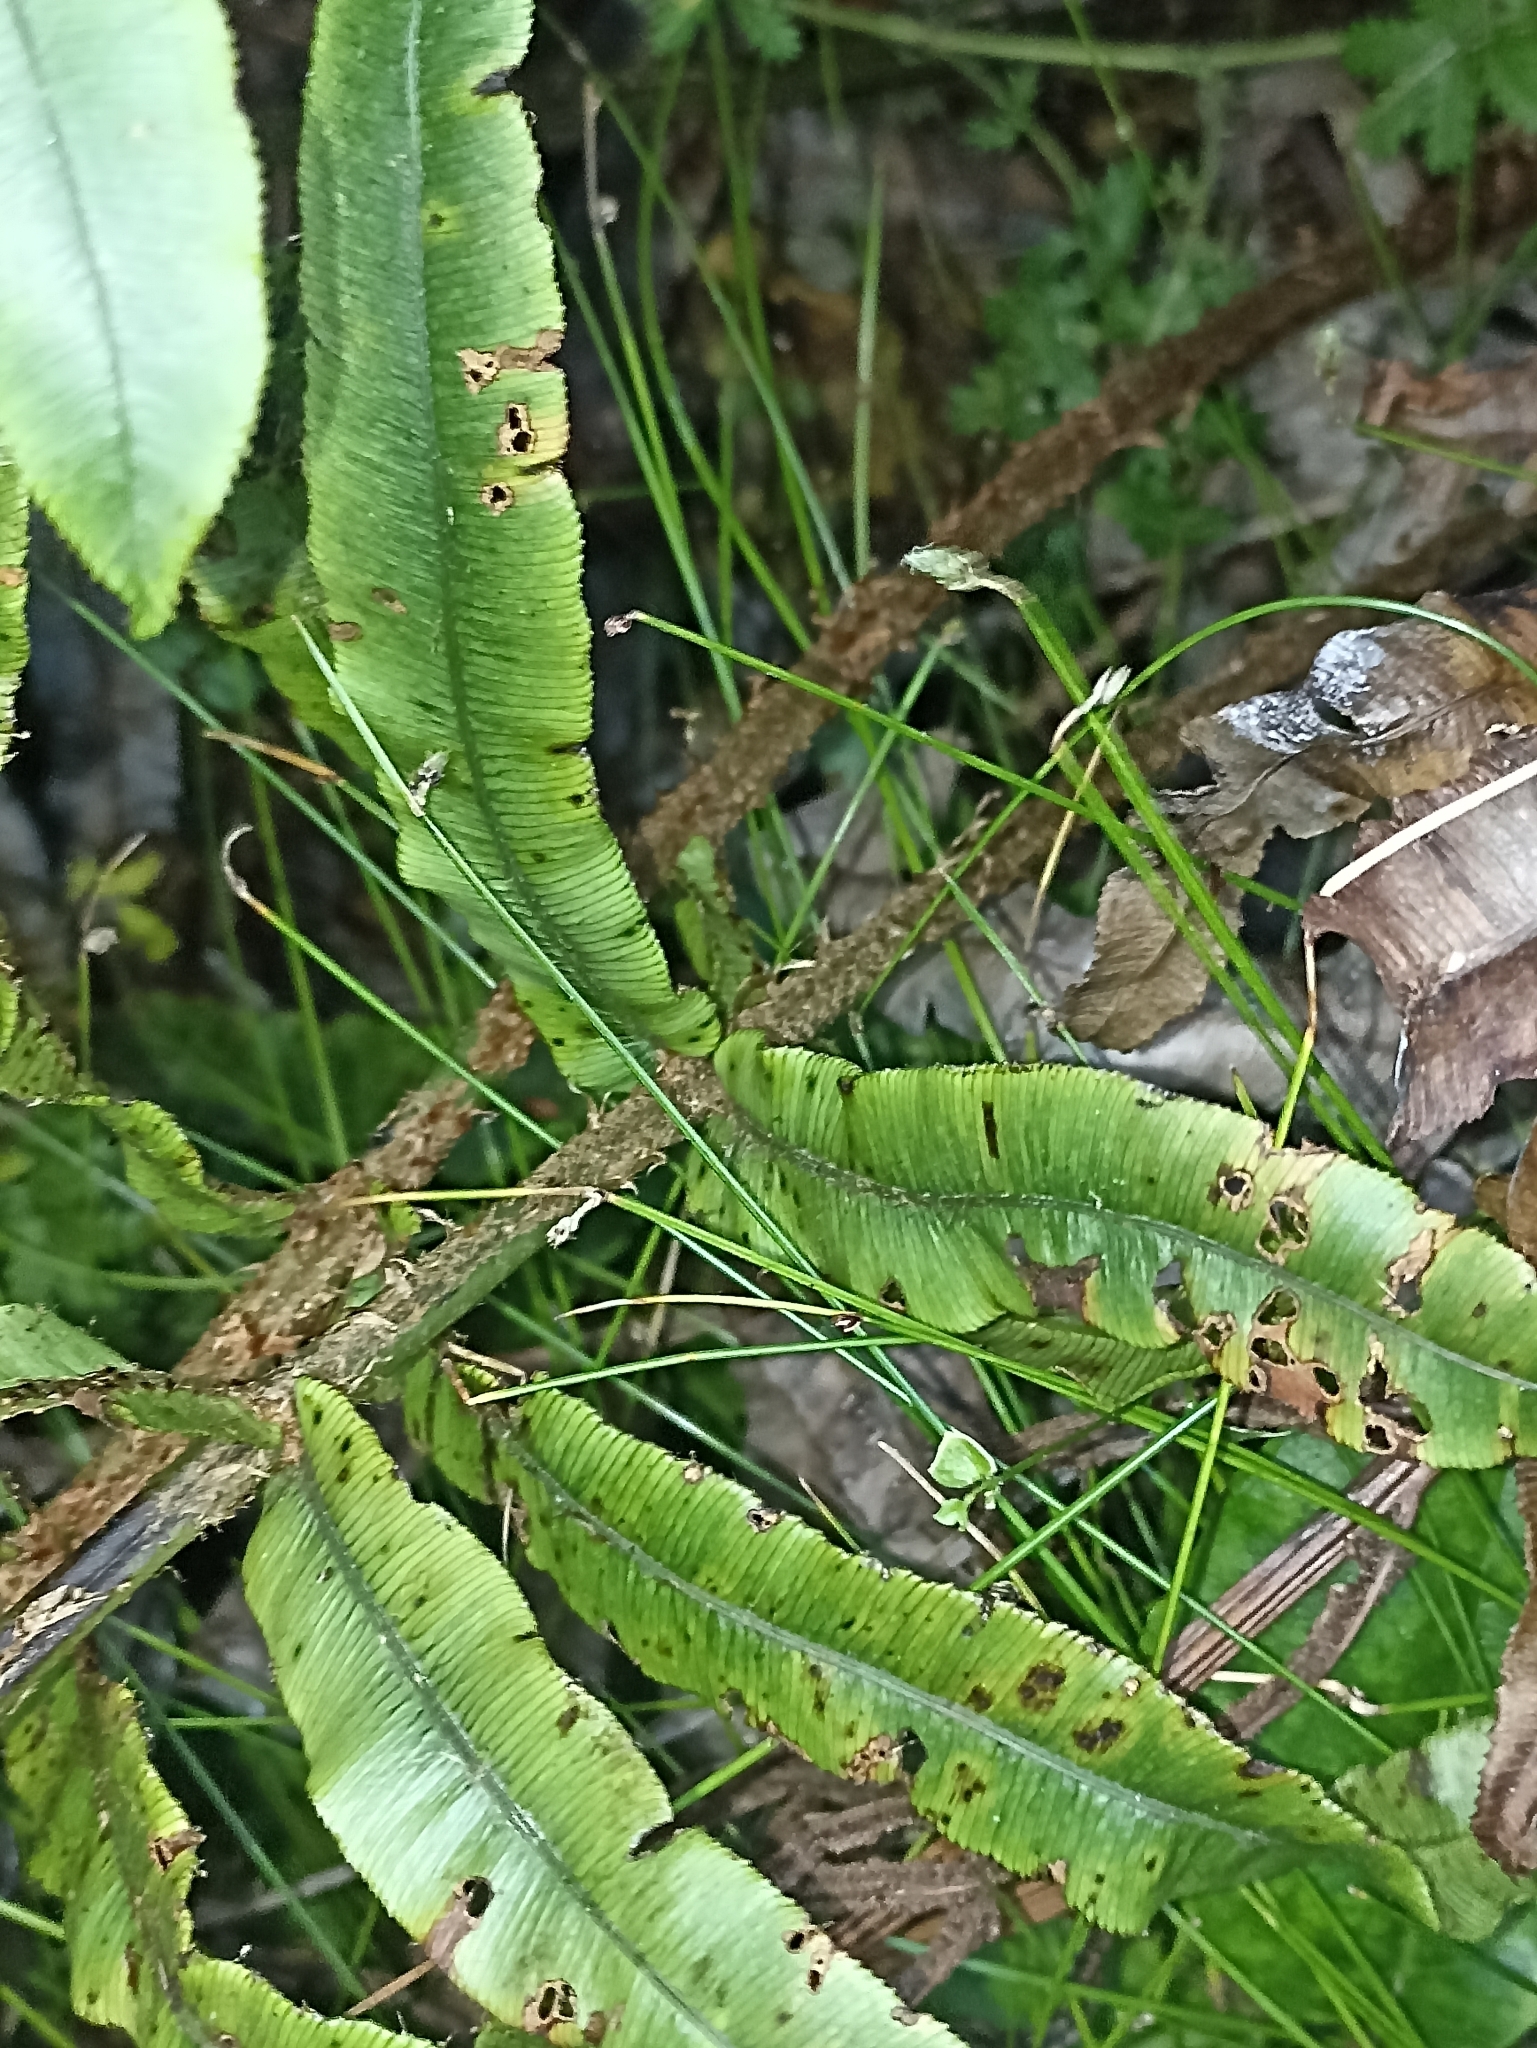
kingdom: Plantae
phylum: Tracheophyta
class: Polypodiopsida
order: Polypodiales
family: Blechnaceae
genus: Parablechnum
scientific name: Parablechnum montanum
